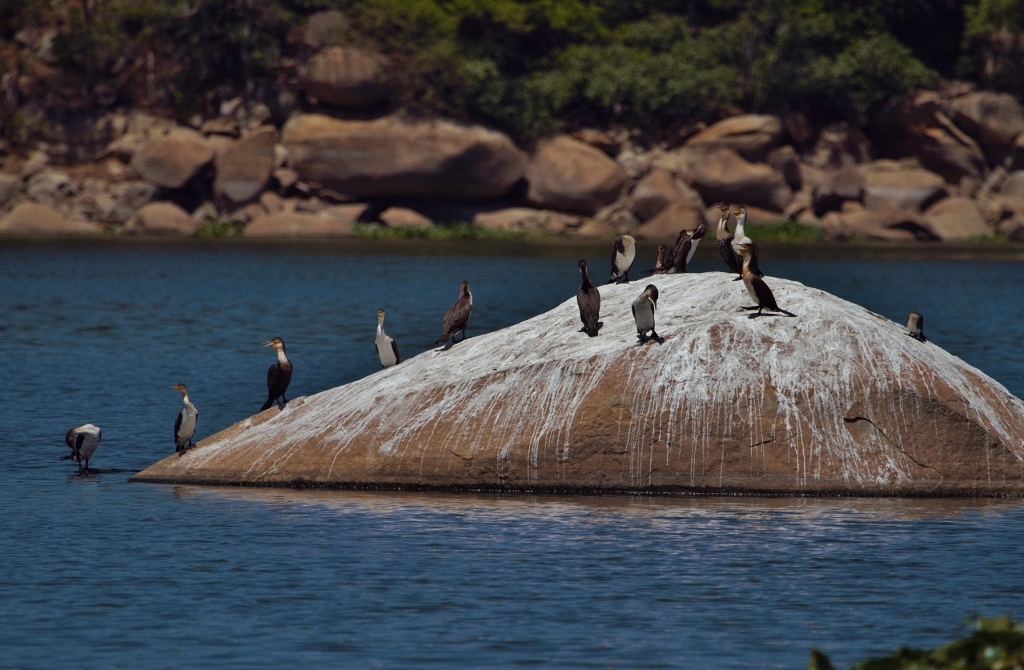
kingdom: Animalia
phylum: Chordata
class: Aves
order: Suliformes
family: Phalacrocoracidae
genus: Phalacrocorax
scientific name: Phalacrocorax carbo
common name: Great cormorant
